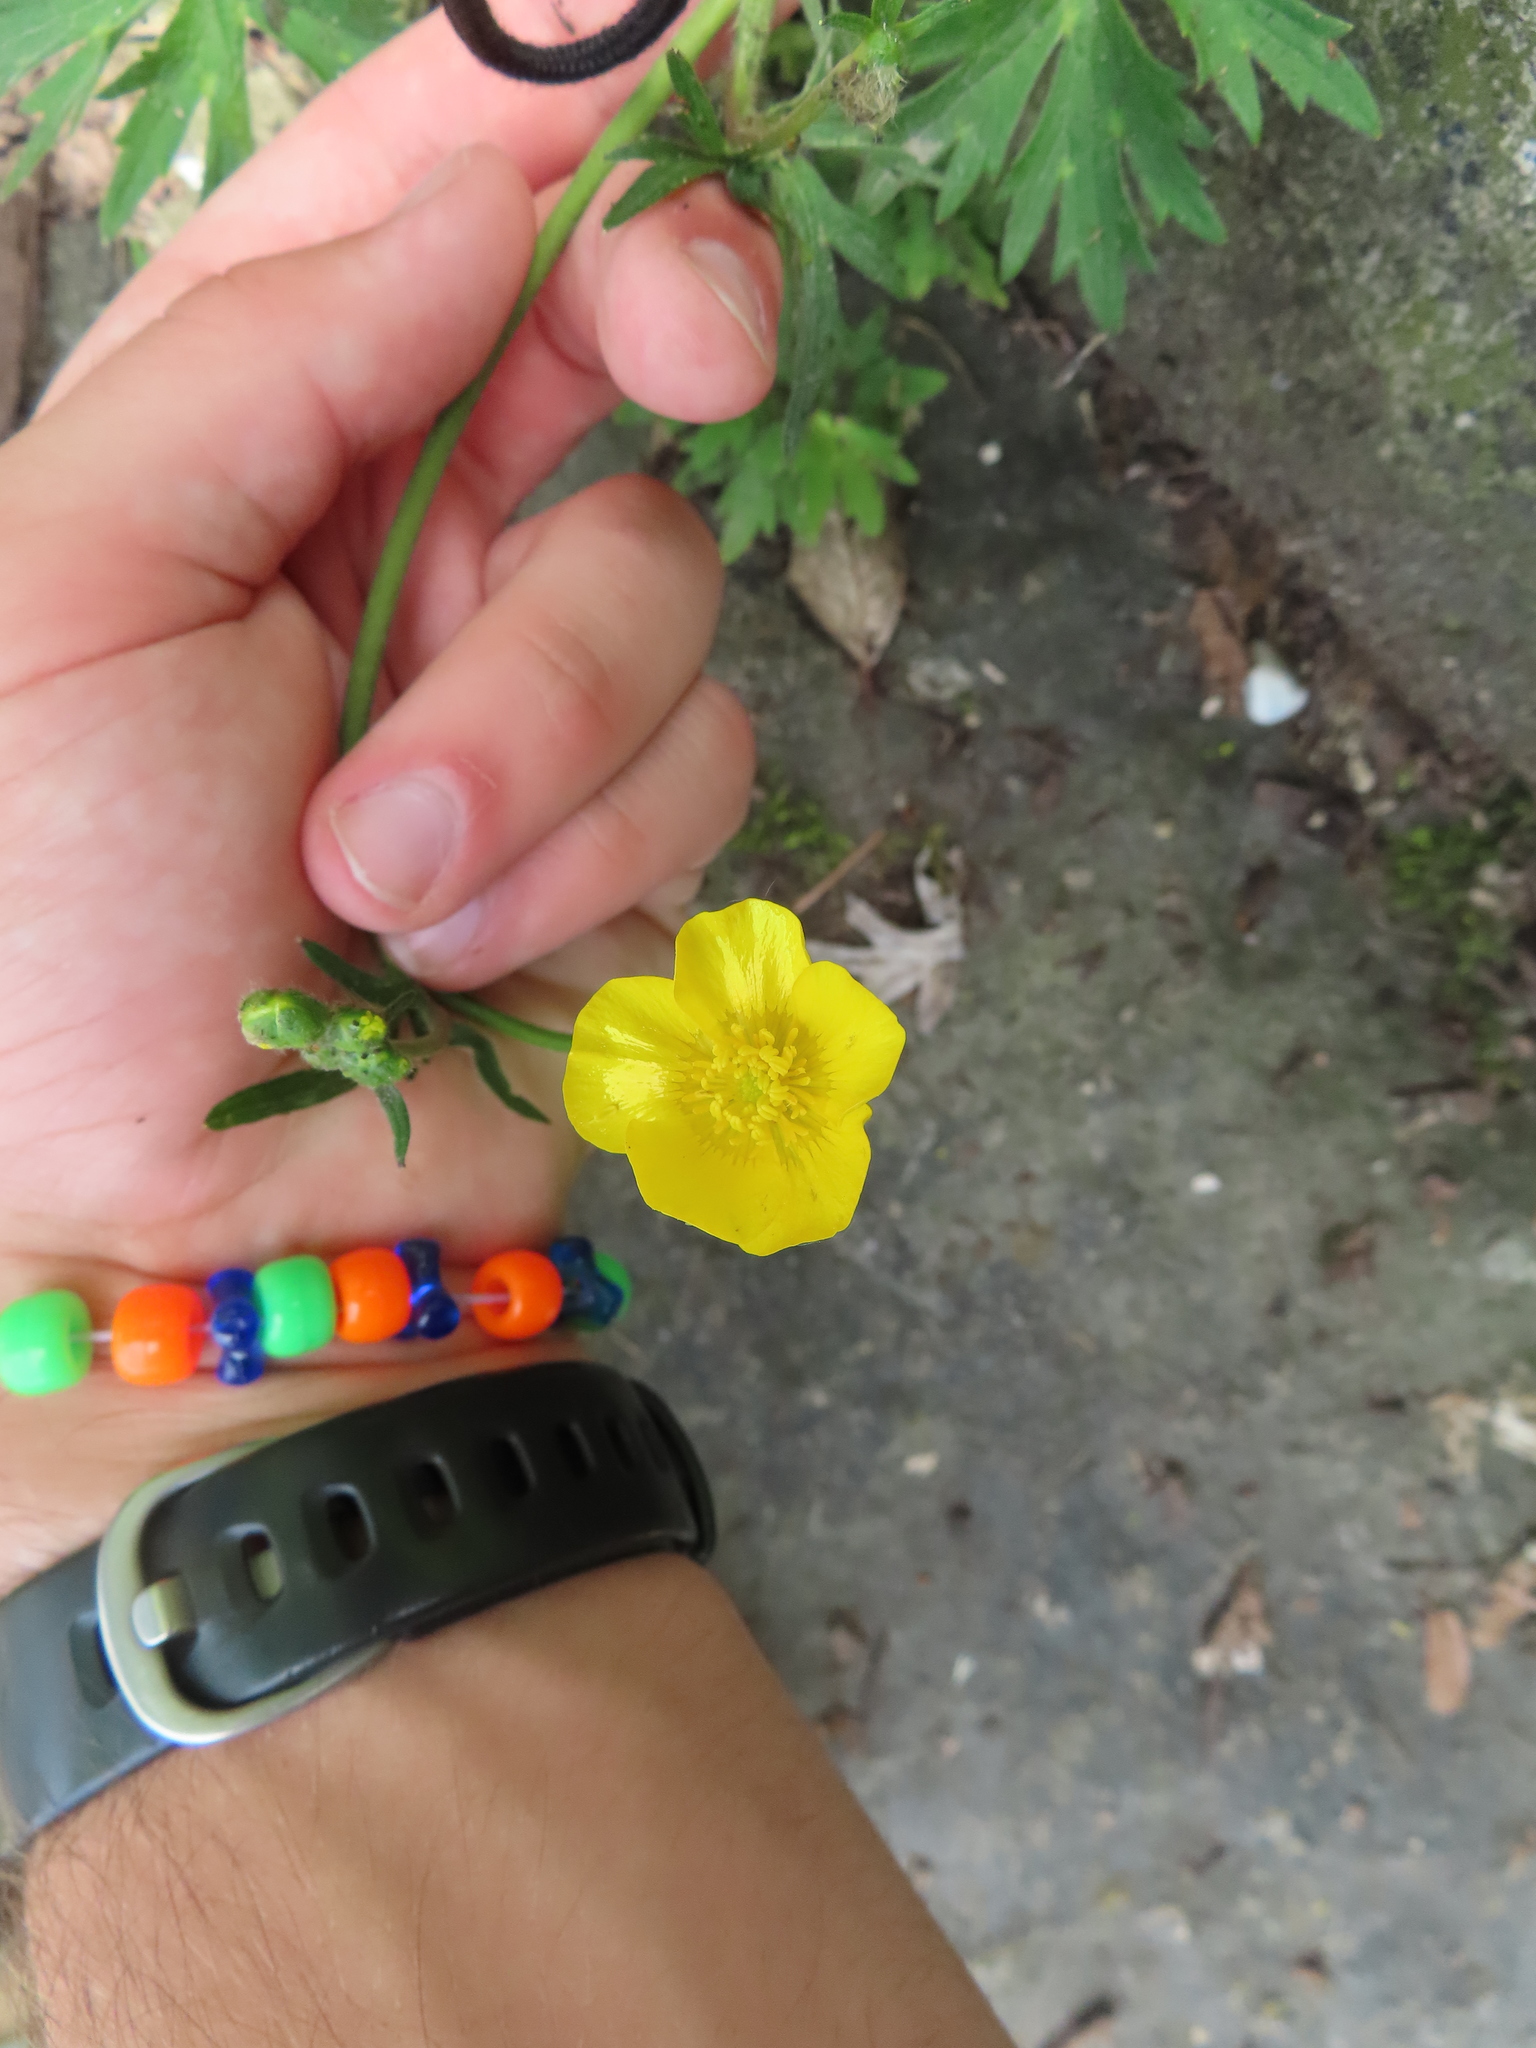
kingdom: Plantae
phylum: Tracheophyta
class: Magnoliopsida
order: Ranunculales
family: Ranunculaceae
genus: Ranunculus
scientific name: Ranunculus acris
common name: Meadow buttercup
